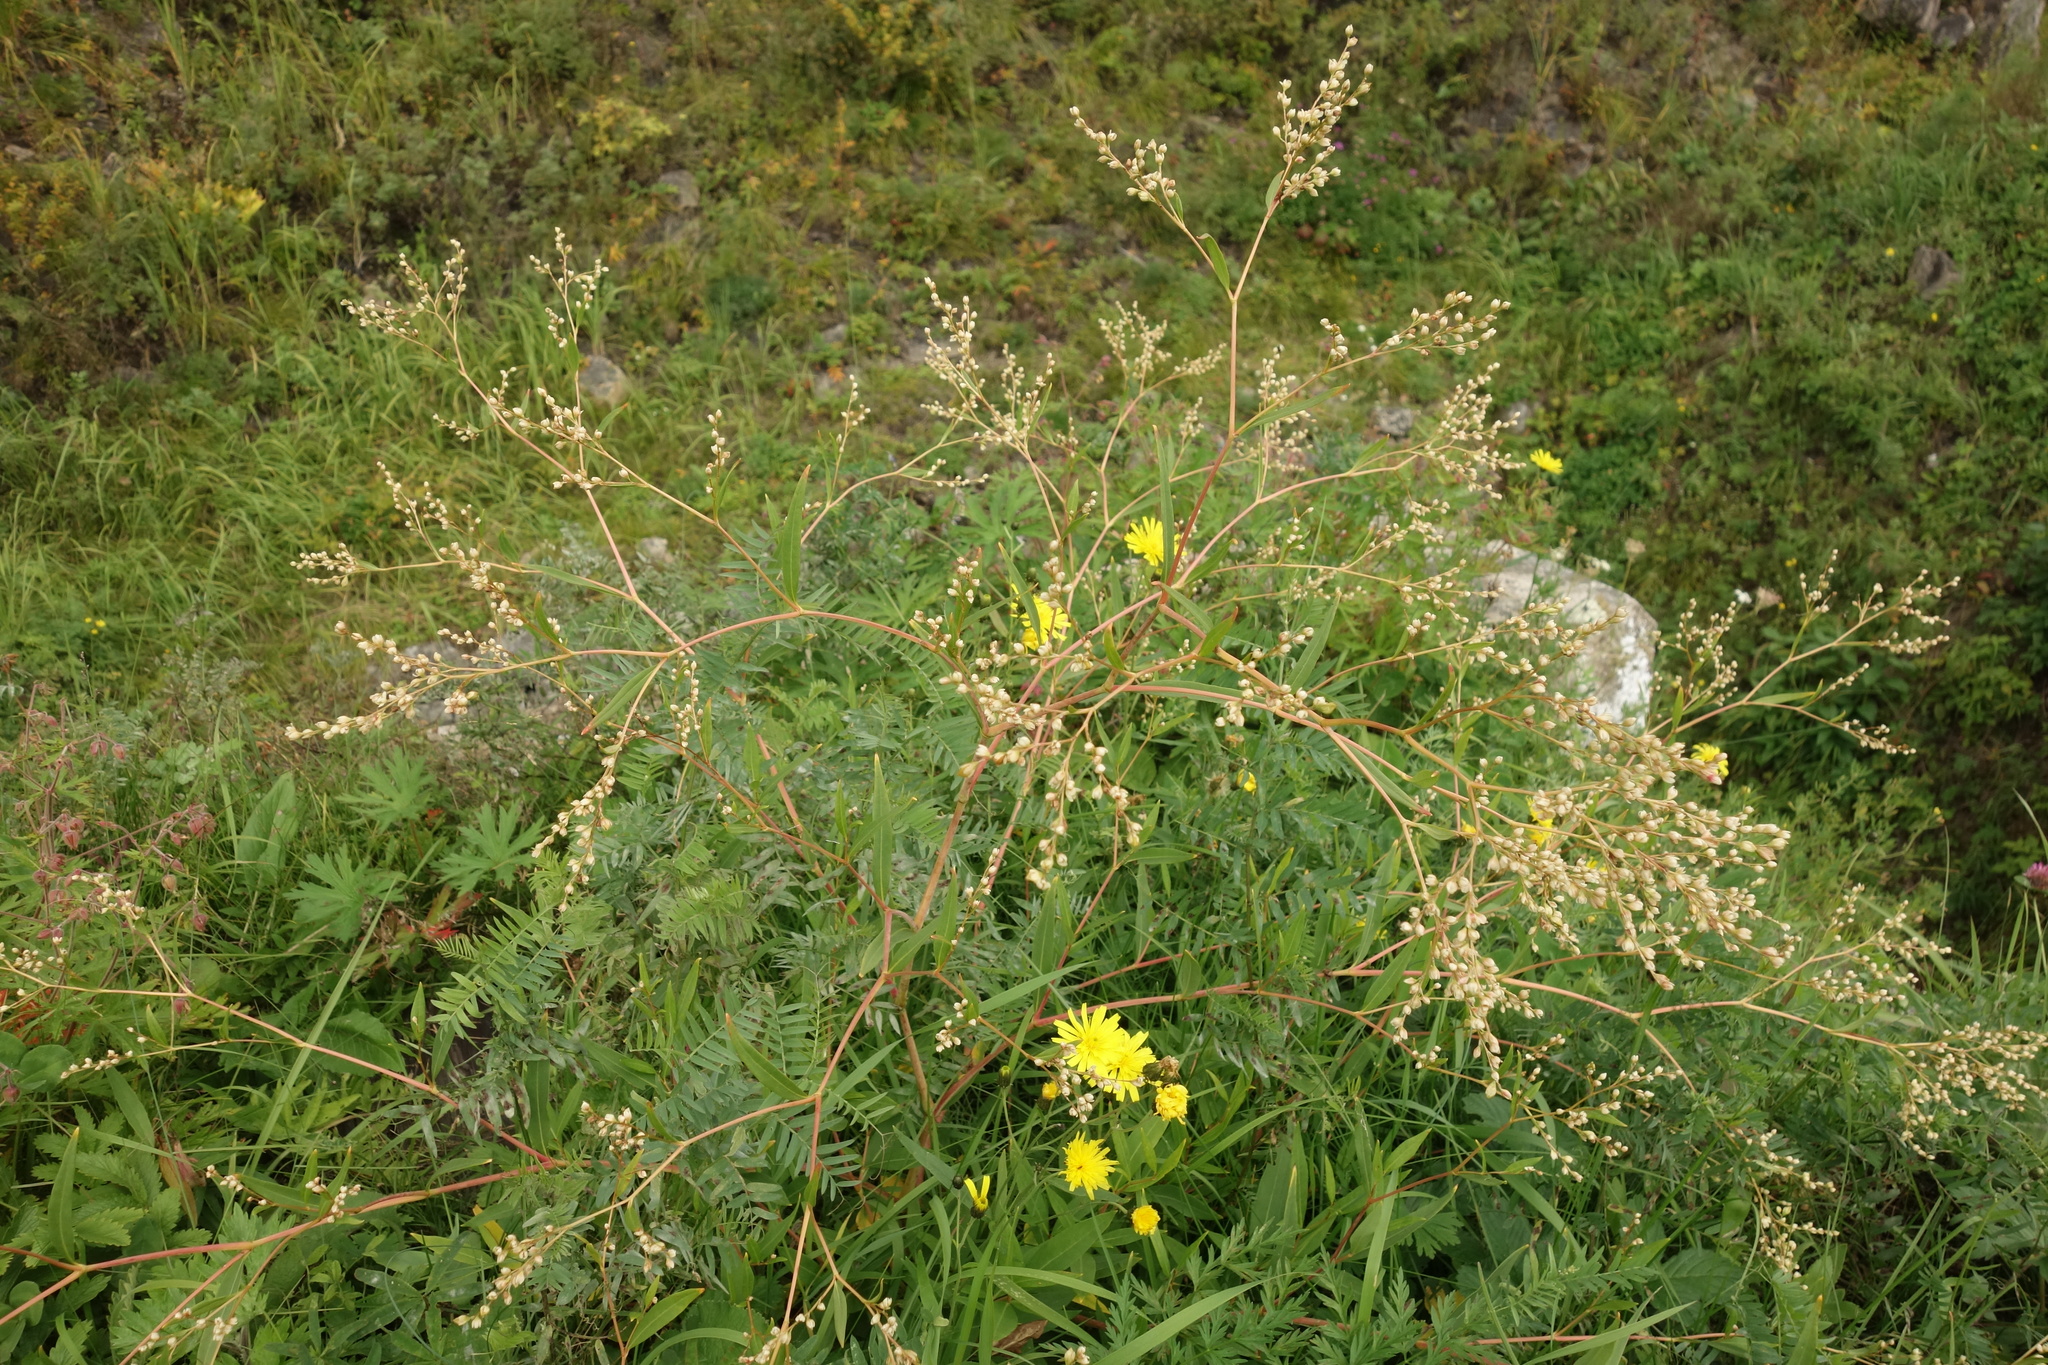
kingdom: Plantae
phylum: Tracheophyta
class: Magnoliopsida
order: Caryophyllales
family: Polygonaceae
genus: Koenigia
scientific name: Koenigia divaricata
